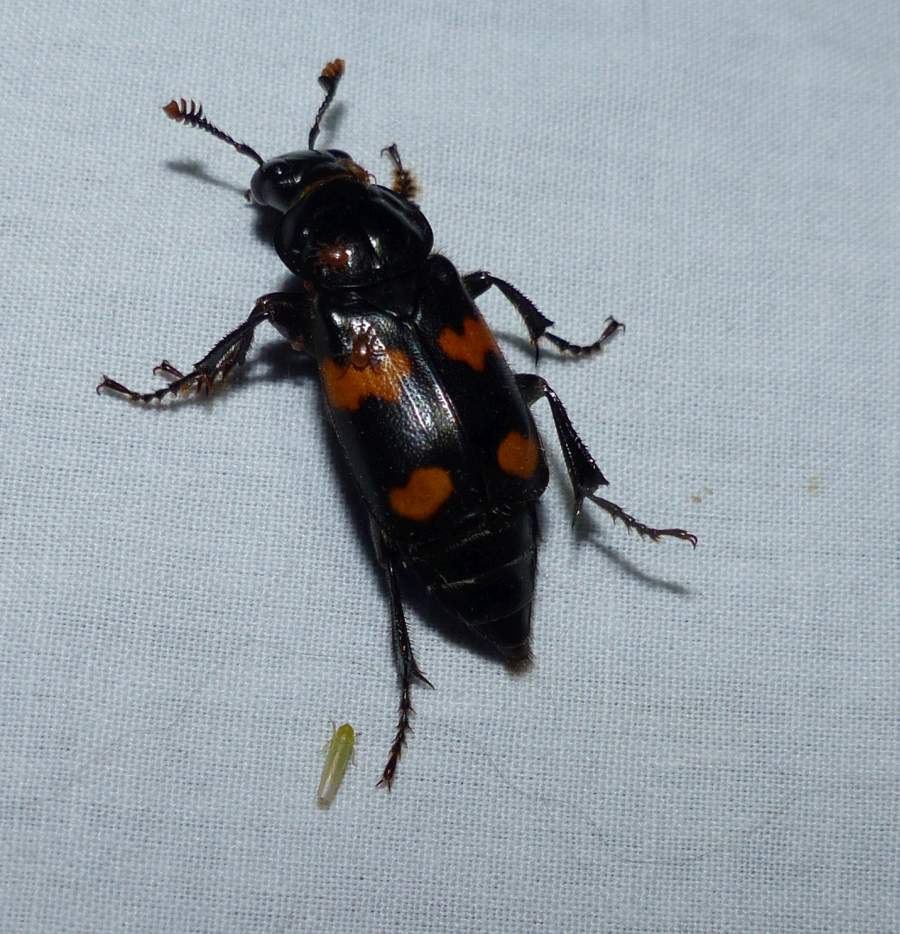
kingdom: Animalia
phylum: Arthropoda
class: Insecta
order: Coleoptera
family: Staphylinidae
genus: Nicrophorus
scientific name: Nicrophorus orbicollis
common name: Roundneck sexton beetle
